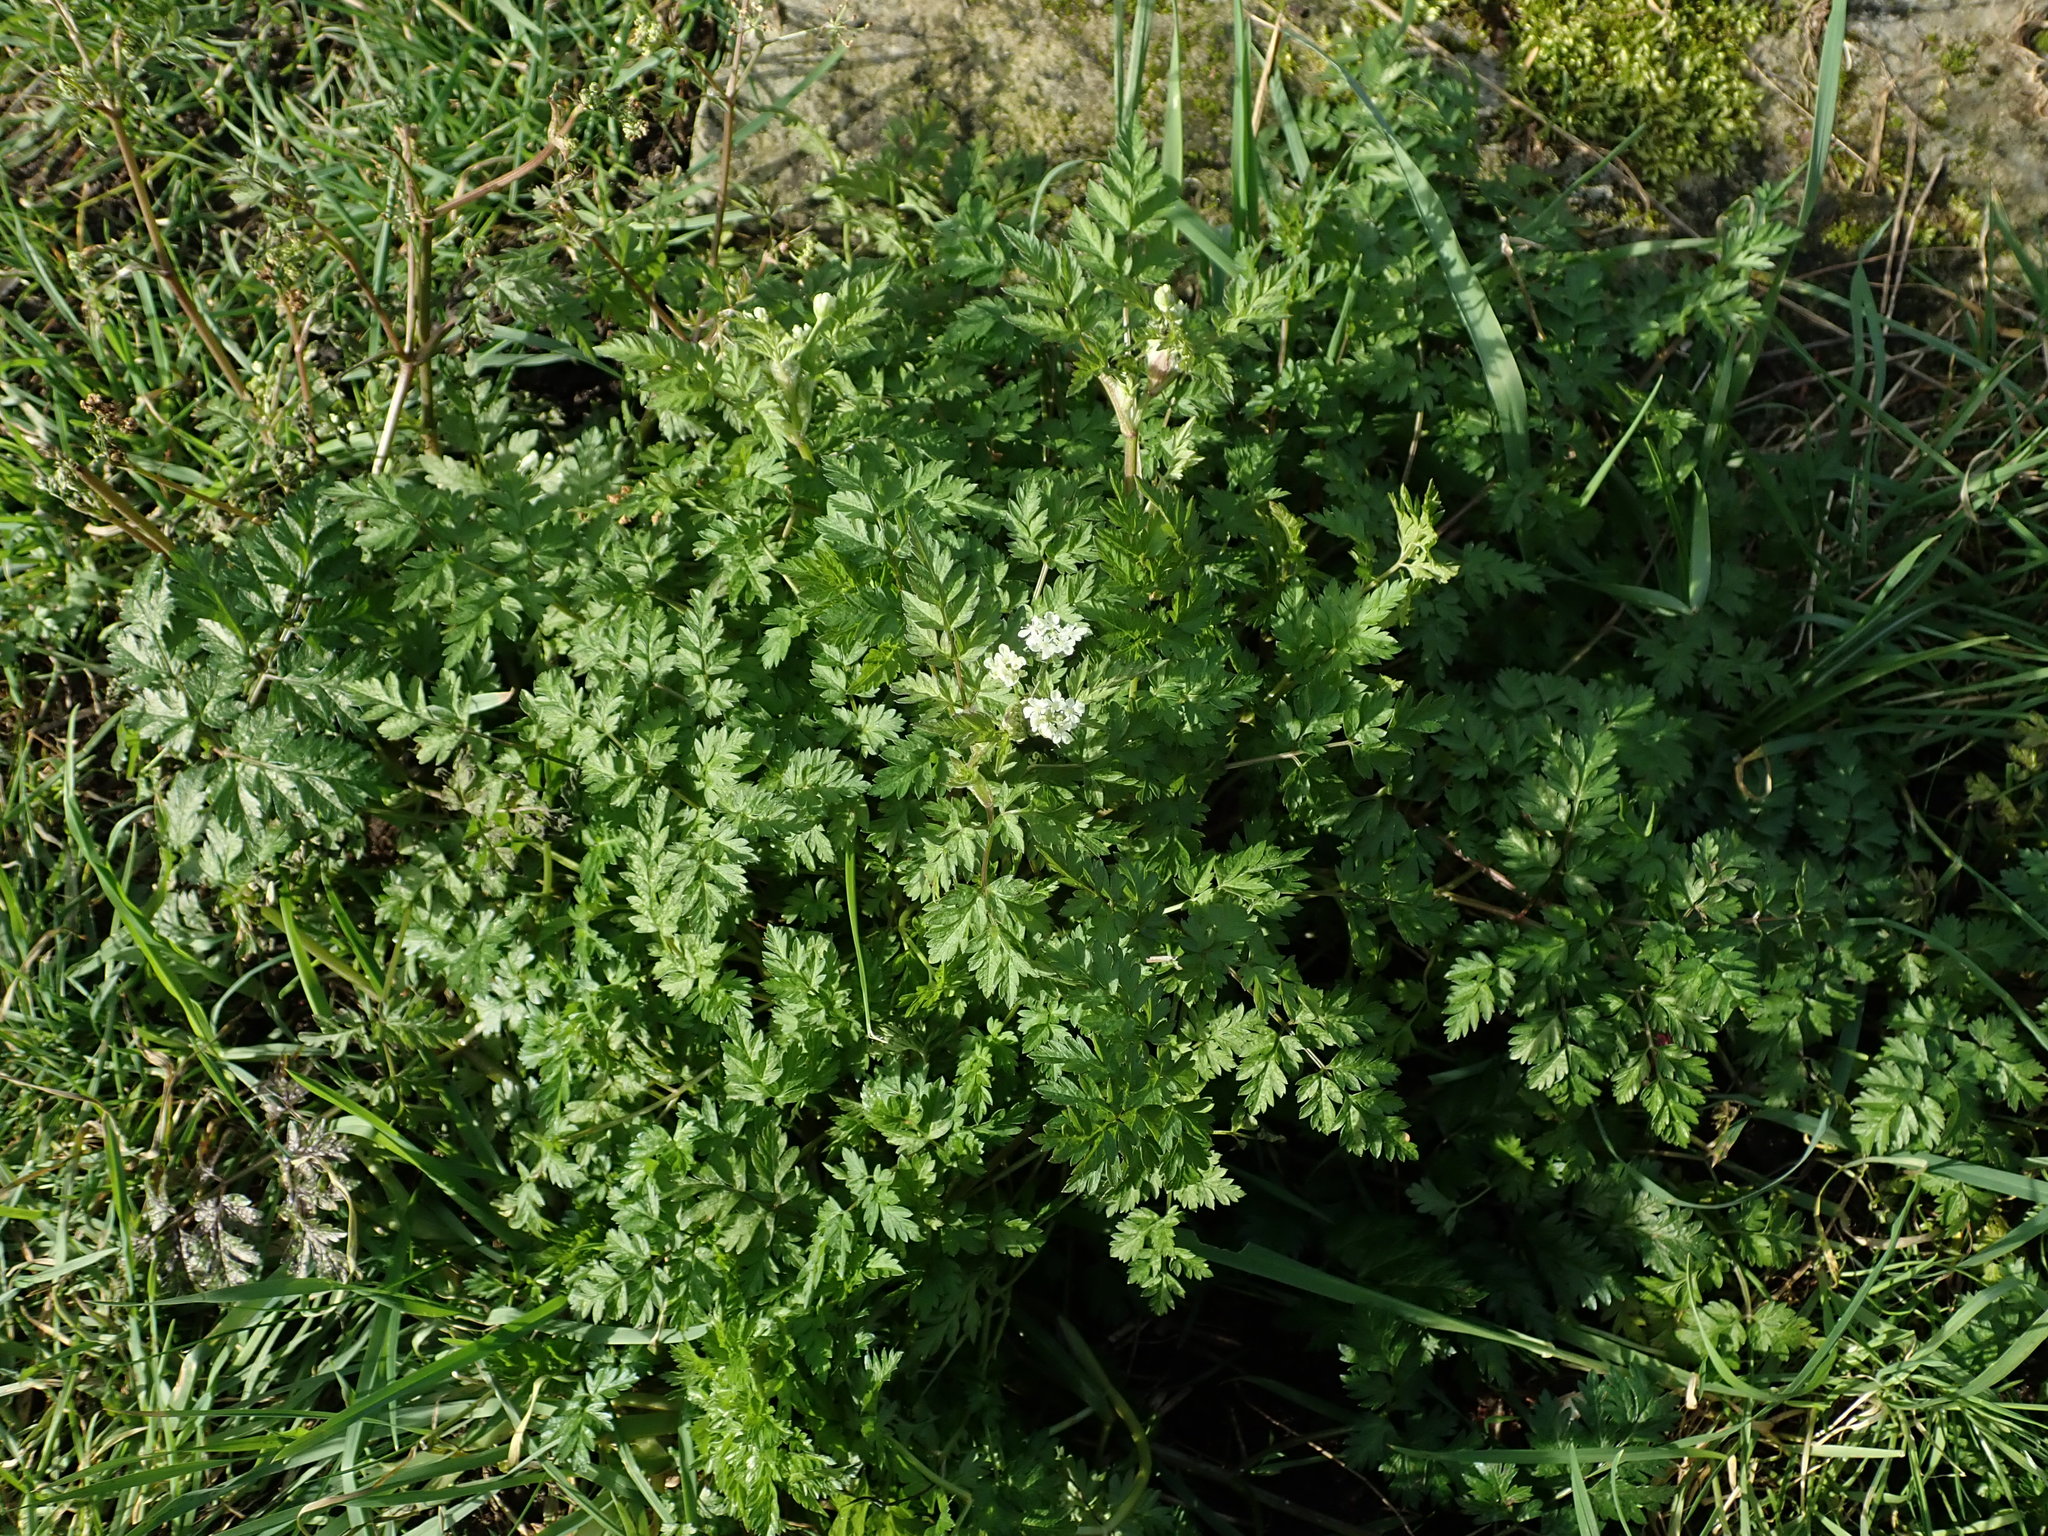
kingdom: Plantae
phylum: Tracheophyta
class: Magnoliopsida
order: Apiales
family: Apiaceae
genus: Anthriscus
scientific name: Anthriscus sylvestris
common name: Cow parsley
